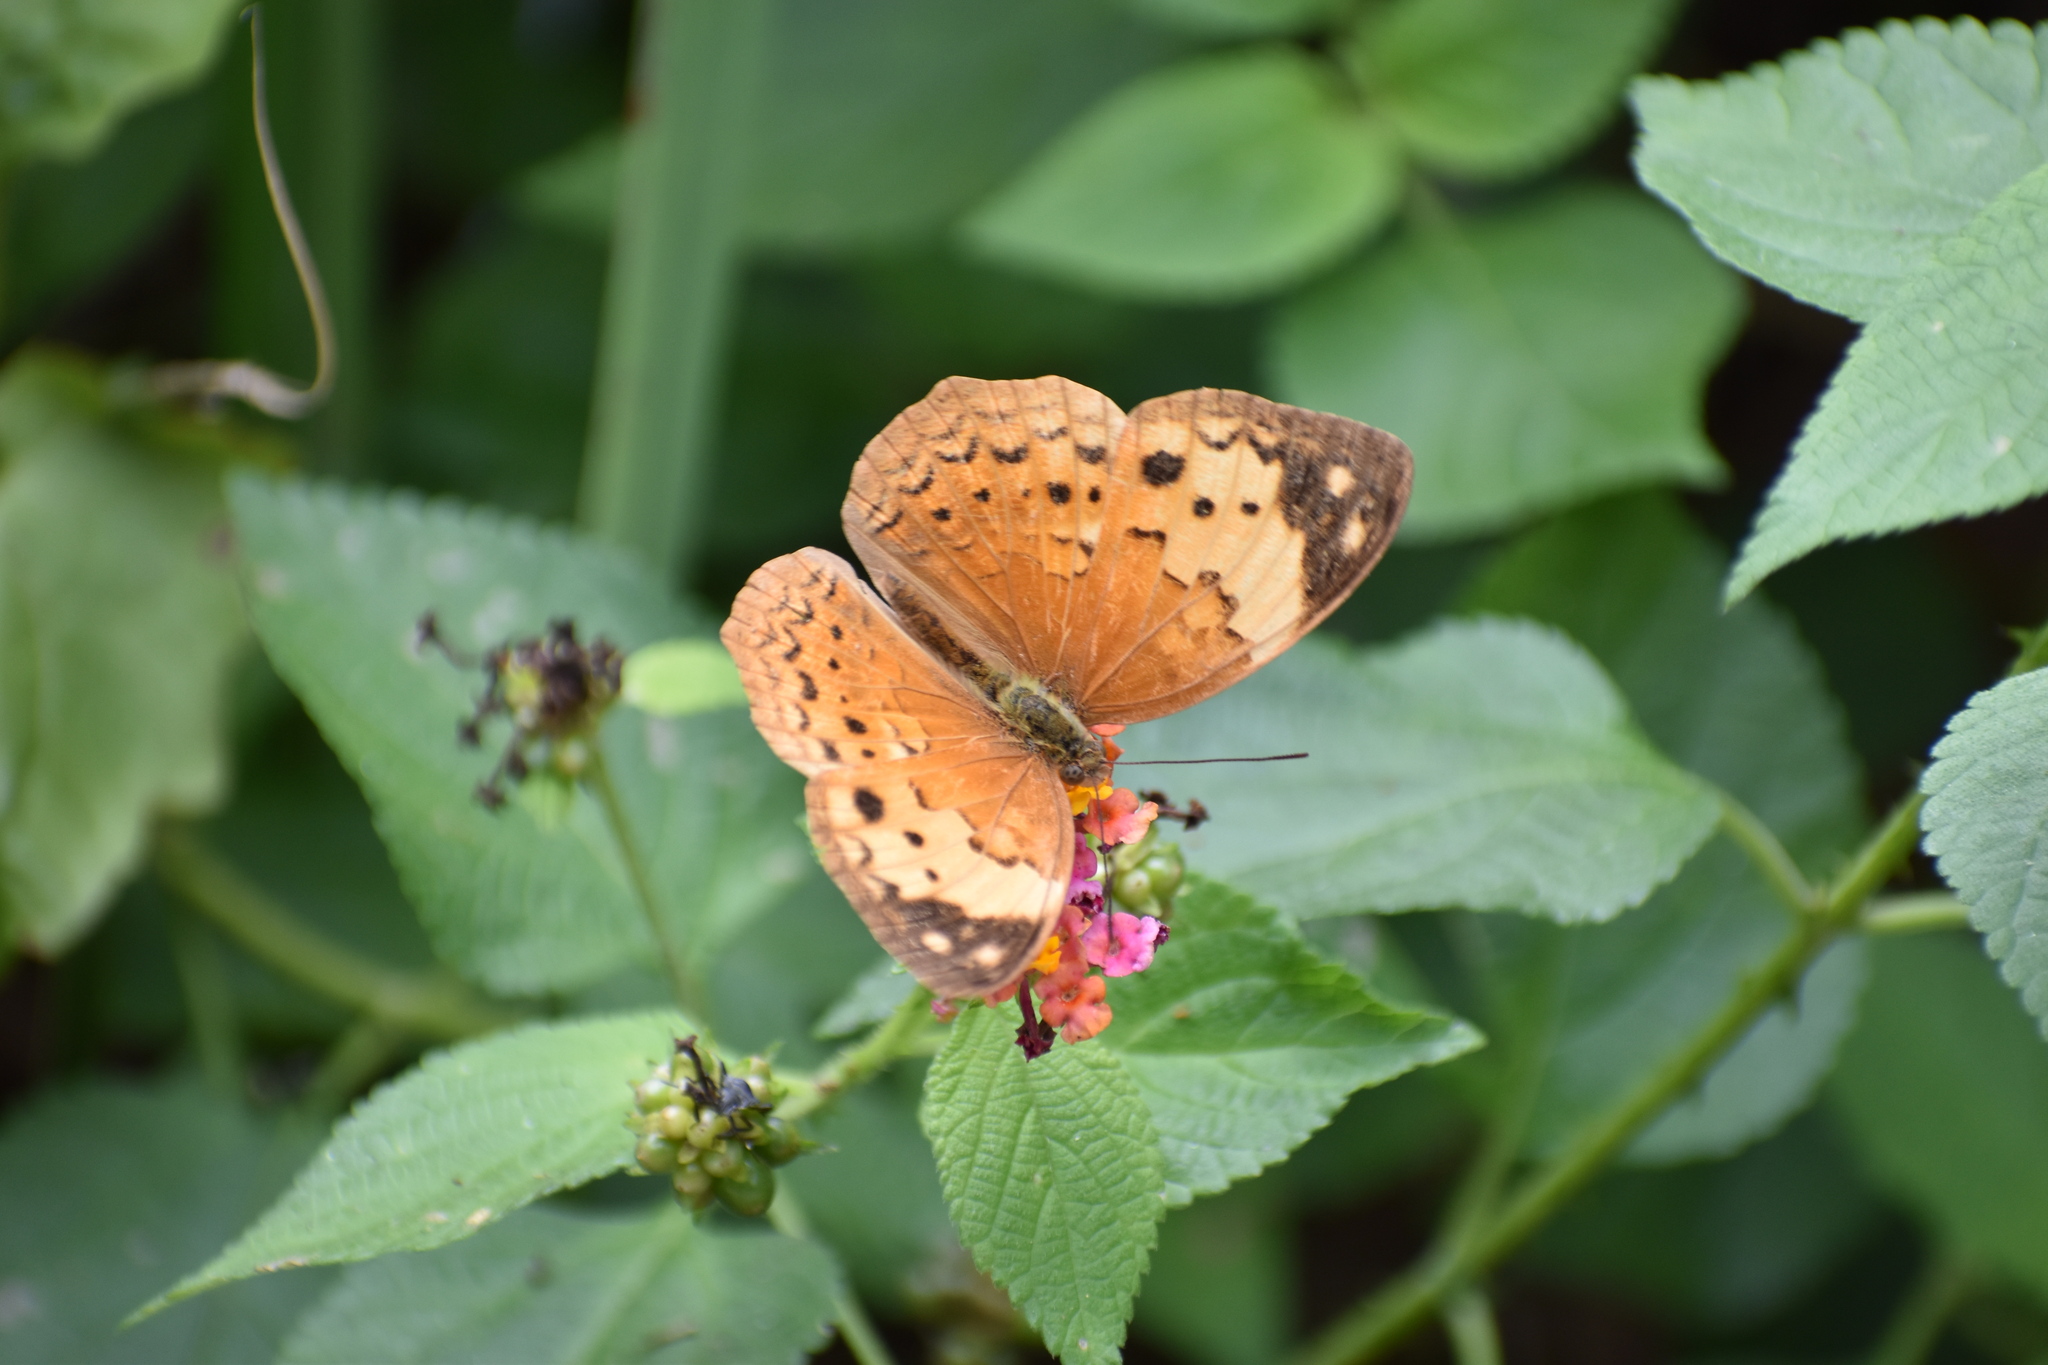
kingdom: Animalia
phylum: Arthropoda
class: Insecta
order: Lepidoptera
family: Nymphalidae
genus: Cupha
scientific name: Cupha erymanthis
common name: Rustic
